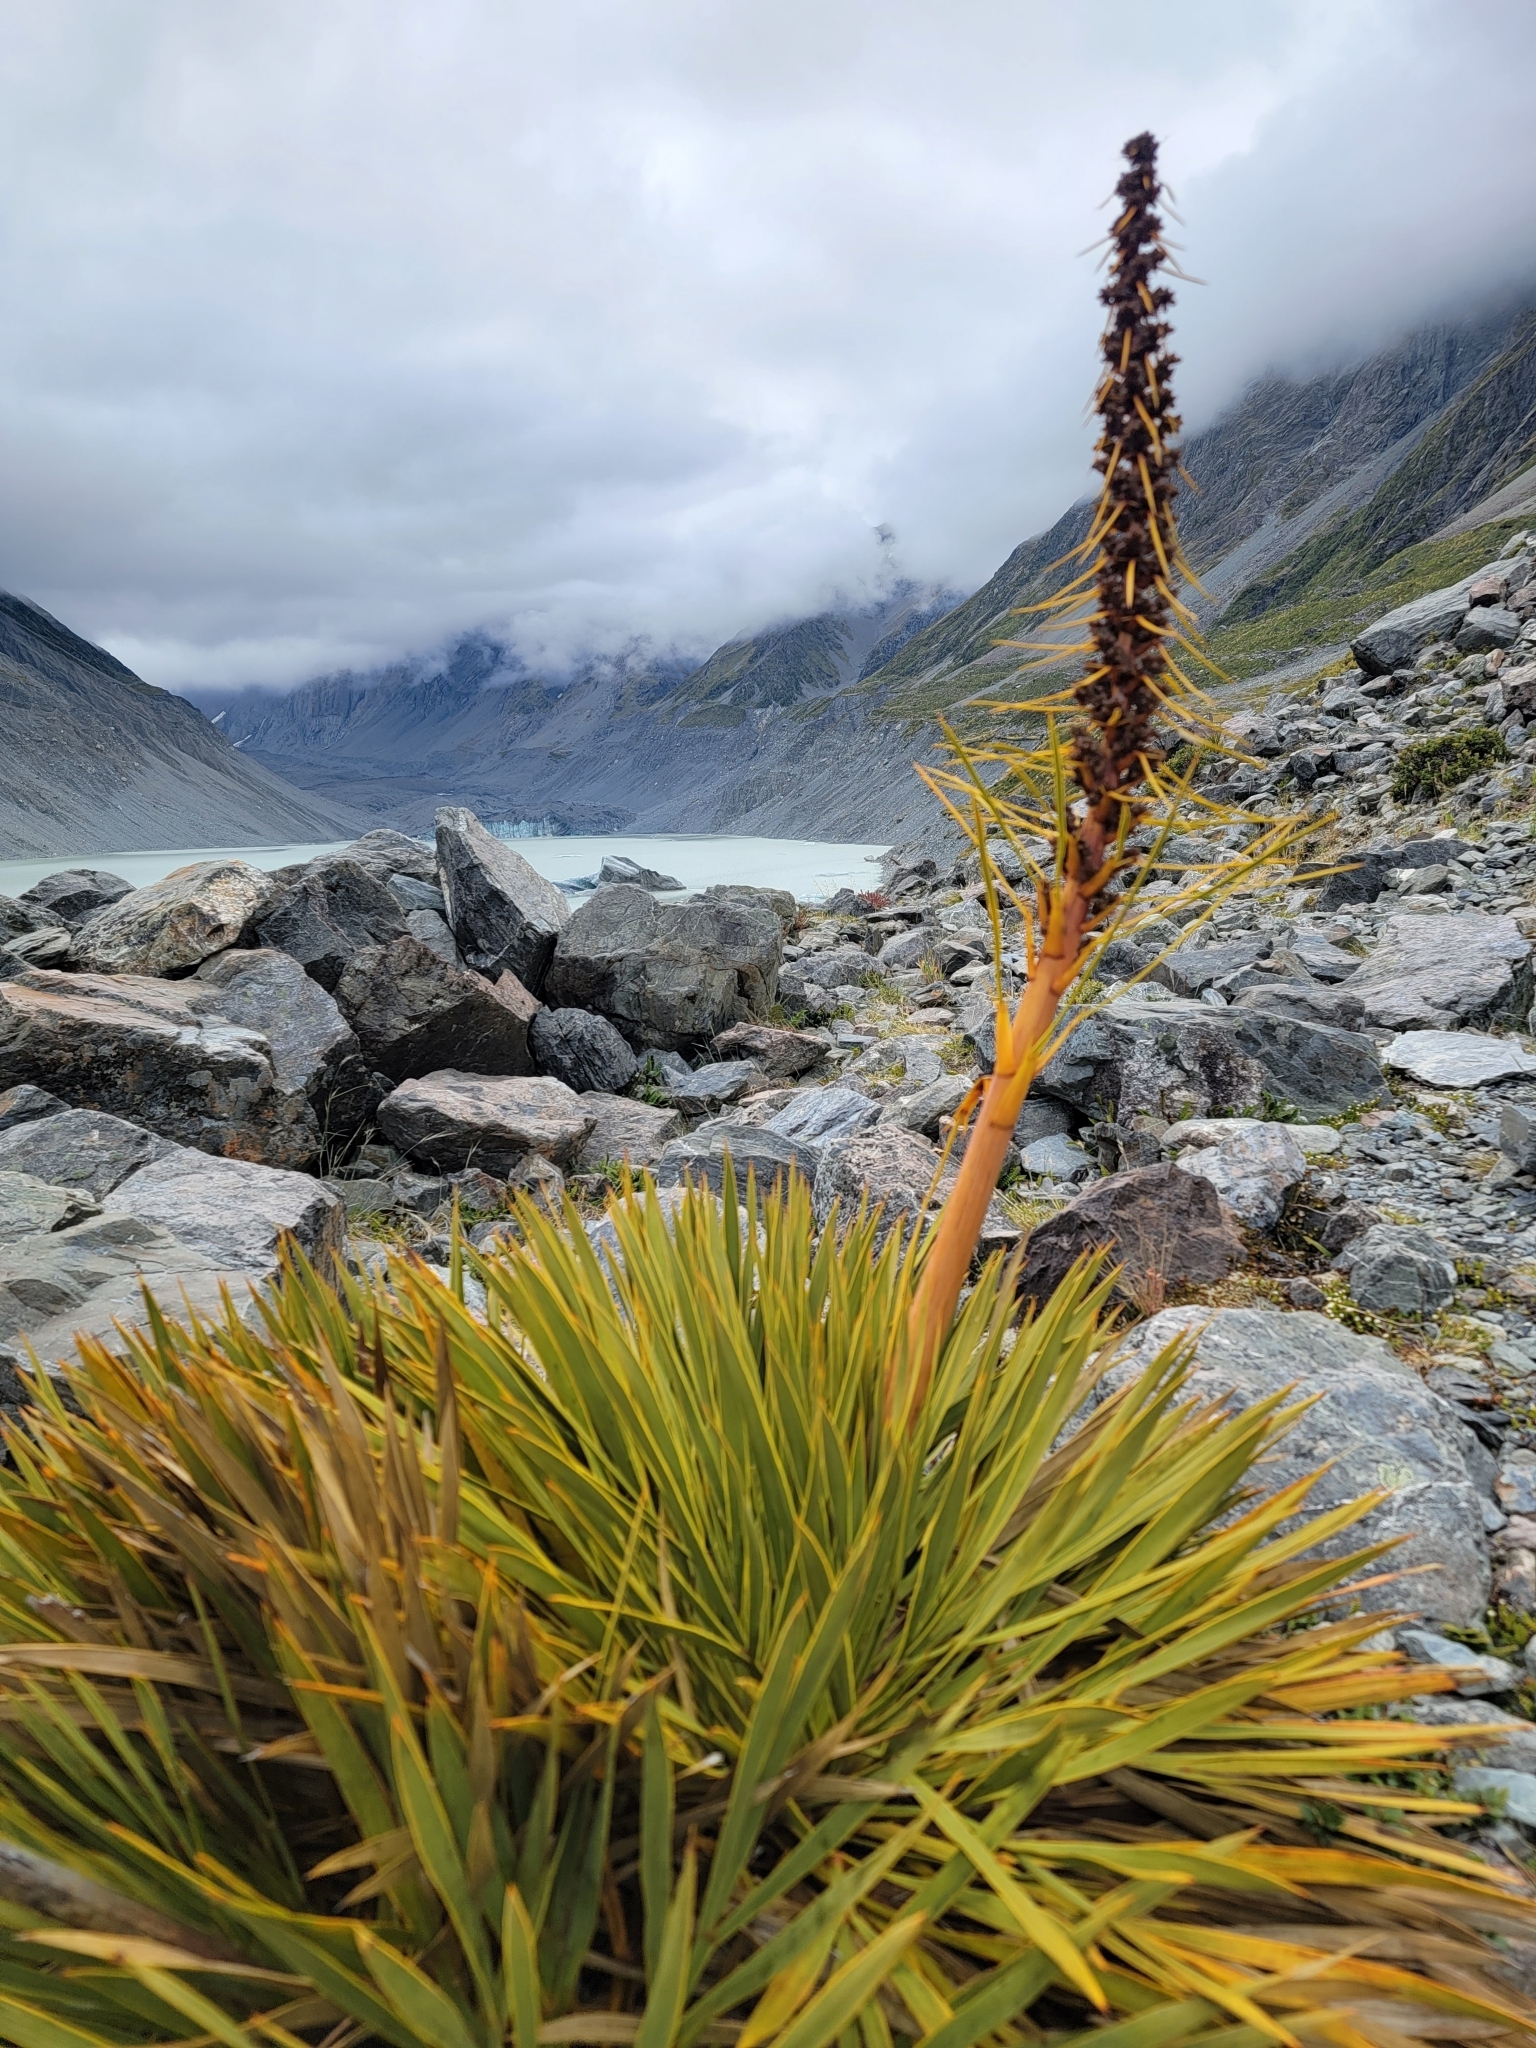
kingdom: Plantae
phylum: Tracheophyta
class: Magnoliopsida
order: Apiales
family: Apiaceae
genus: Aciphylla
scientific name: Aciphylla aurea
